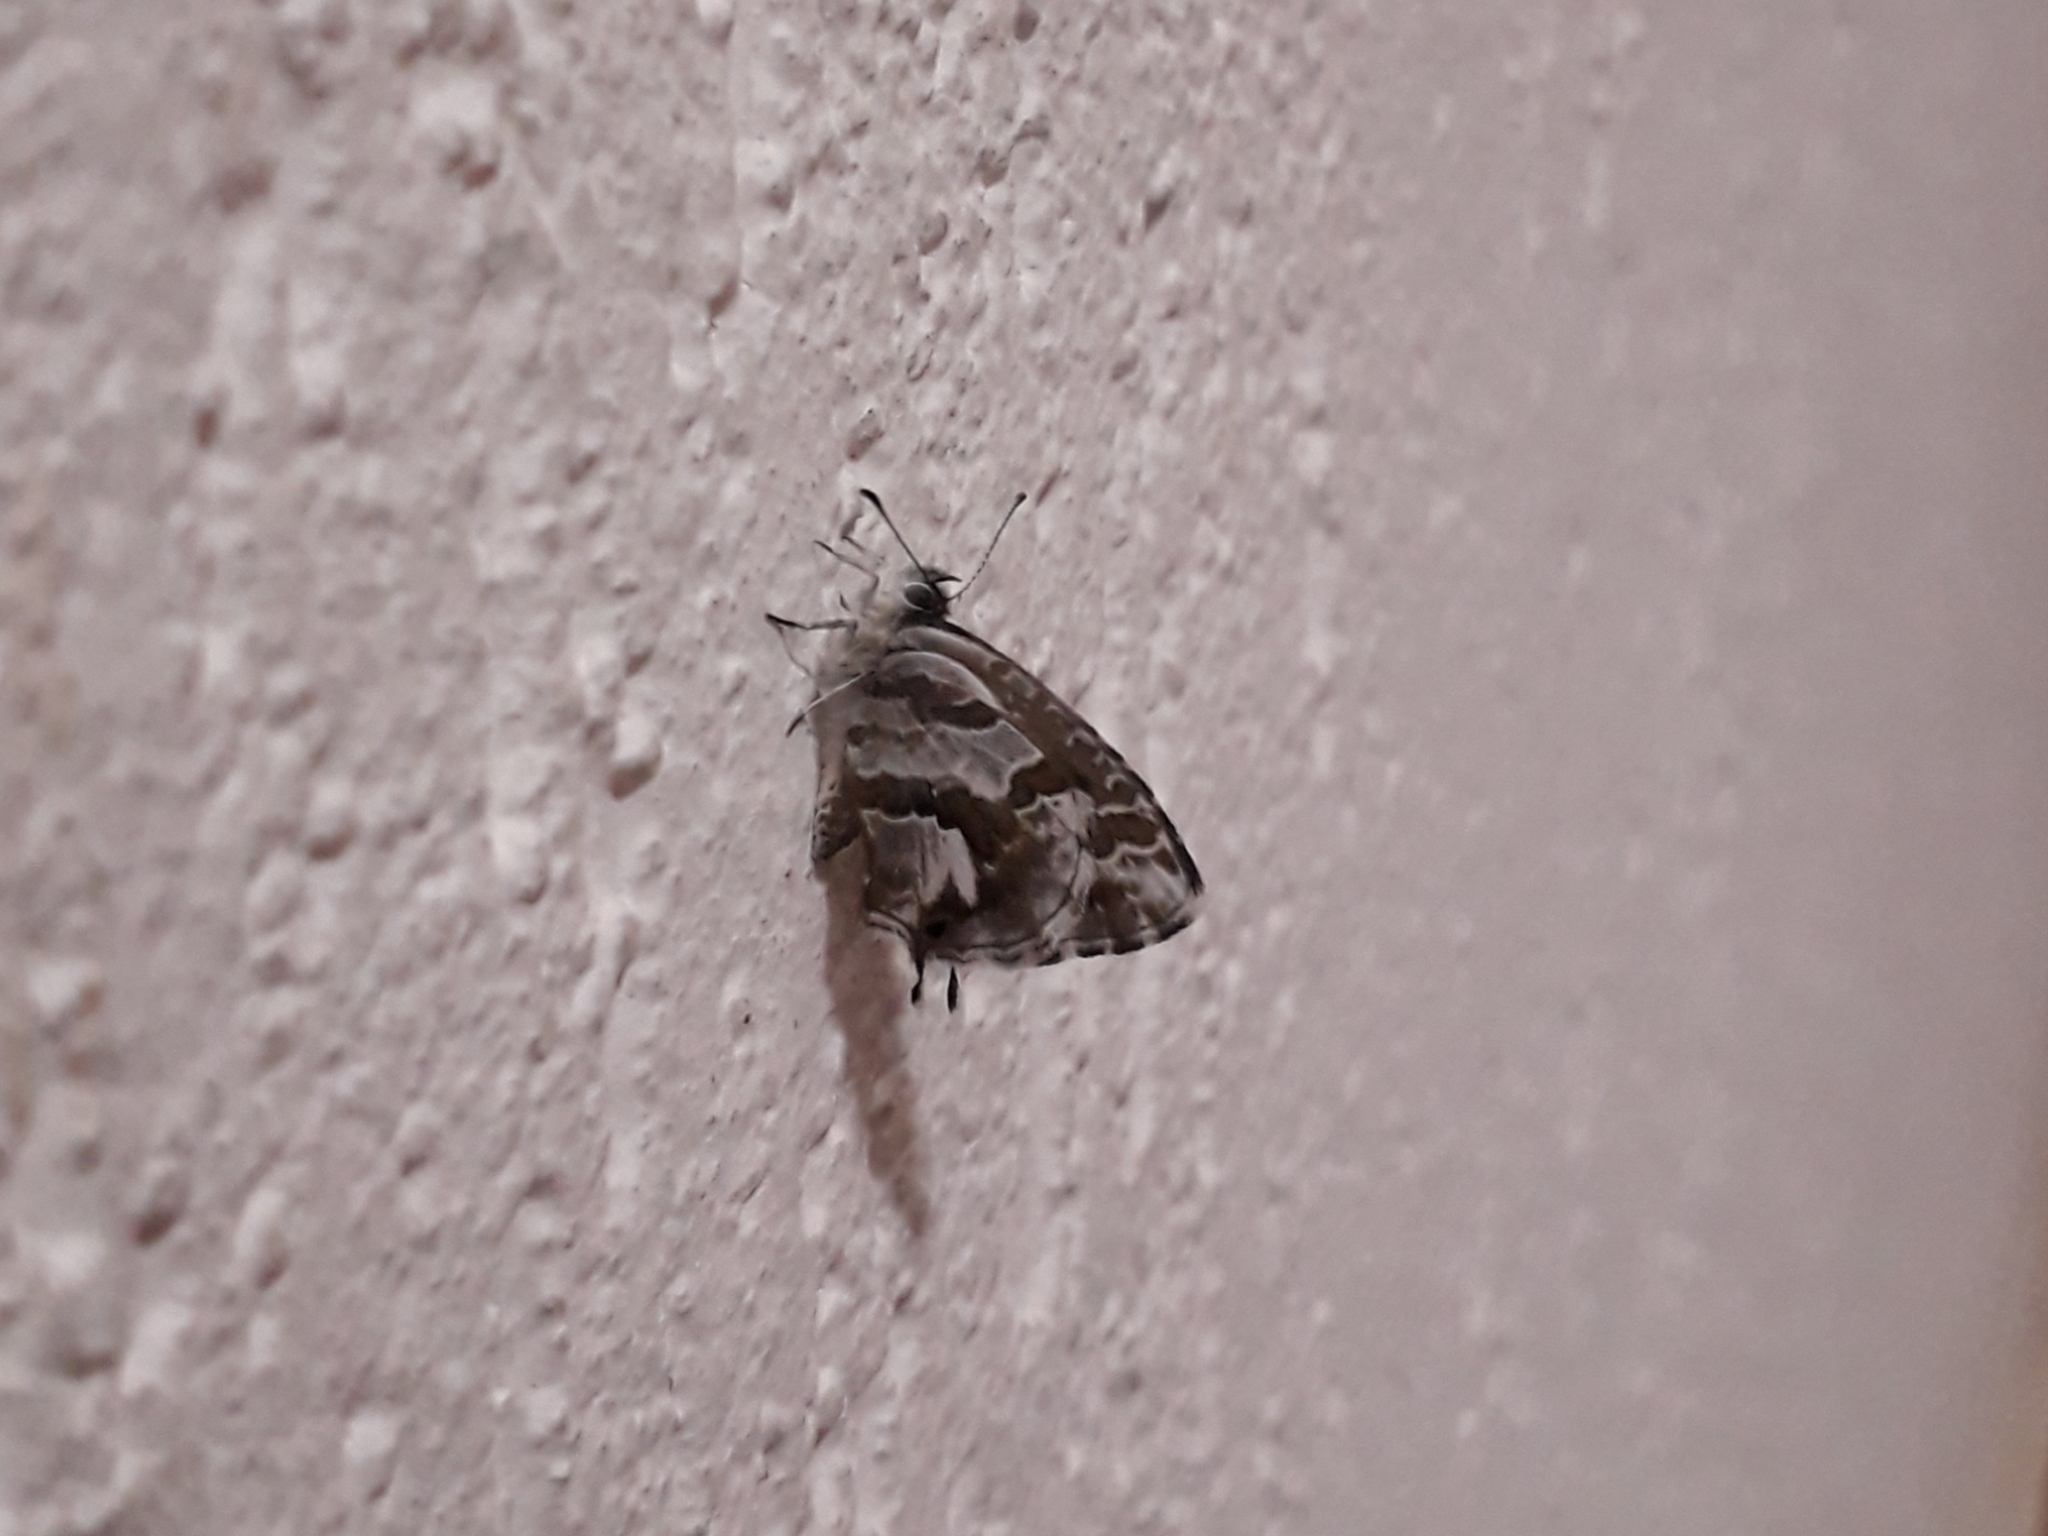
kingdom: Animalia
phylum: Arthropoda
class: Insecta
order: Lepidoptera
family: Lycaenidae
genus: Cacyreus
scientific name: Cacyreus marshalli
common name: Geranium bronze
